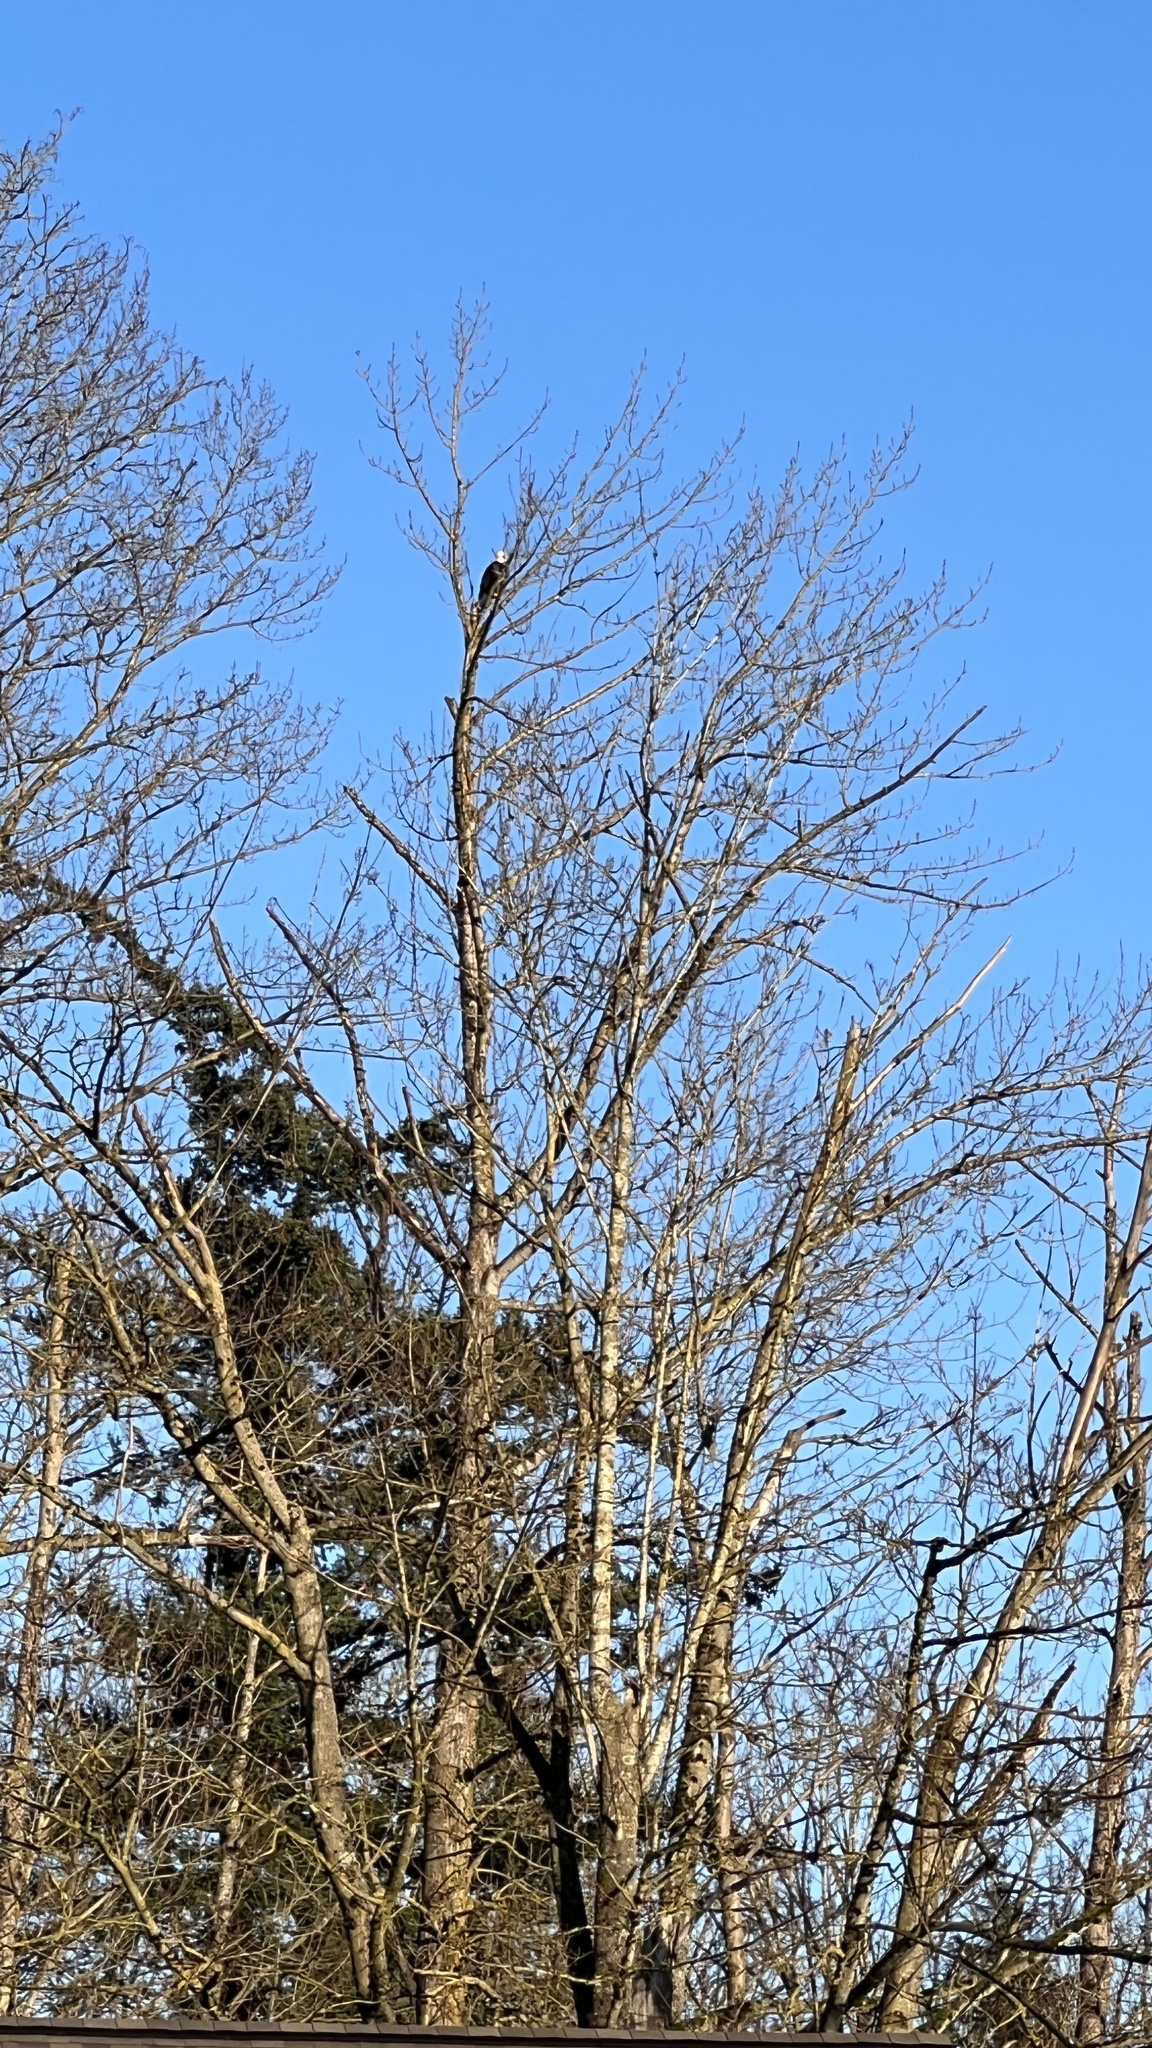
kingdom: Animalia
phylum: Chordata
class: Aves
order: Accipitriformes
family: Accipitridae
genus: Haliaeetus
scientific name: Haliaeetus leucocephalus
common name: Bald eagle
